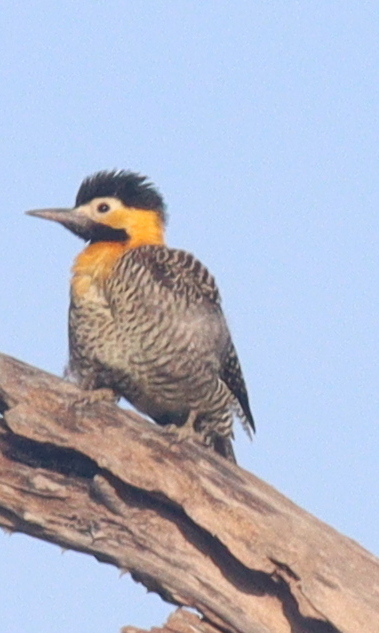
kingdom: Animalia
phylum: Chordata
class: Aves
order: Piciformes
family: Picidae
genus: Colaptes
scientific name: Colaptes campestris
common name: Campo flicker
